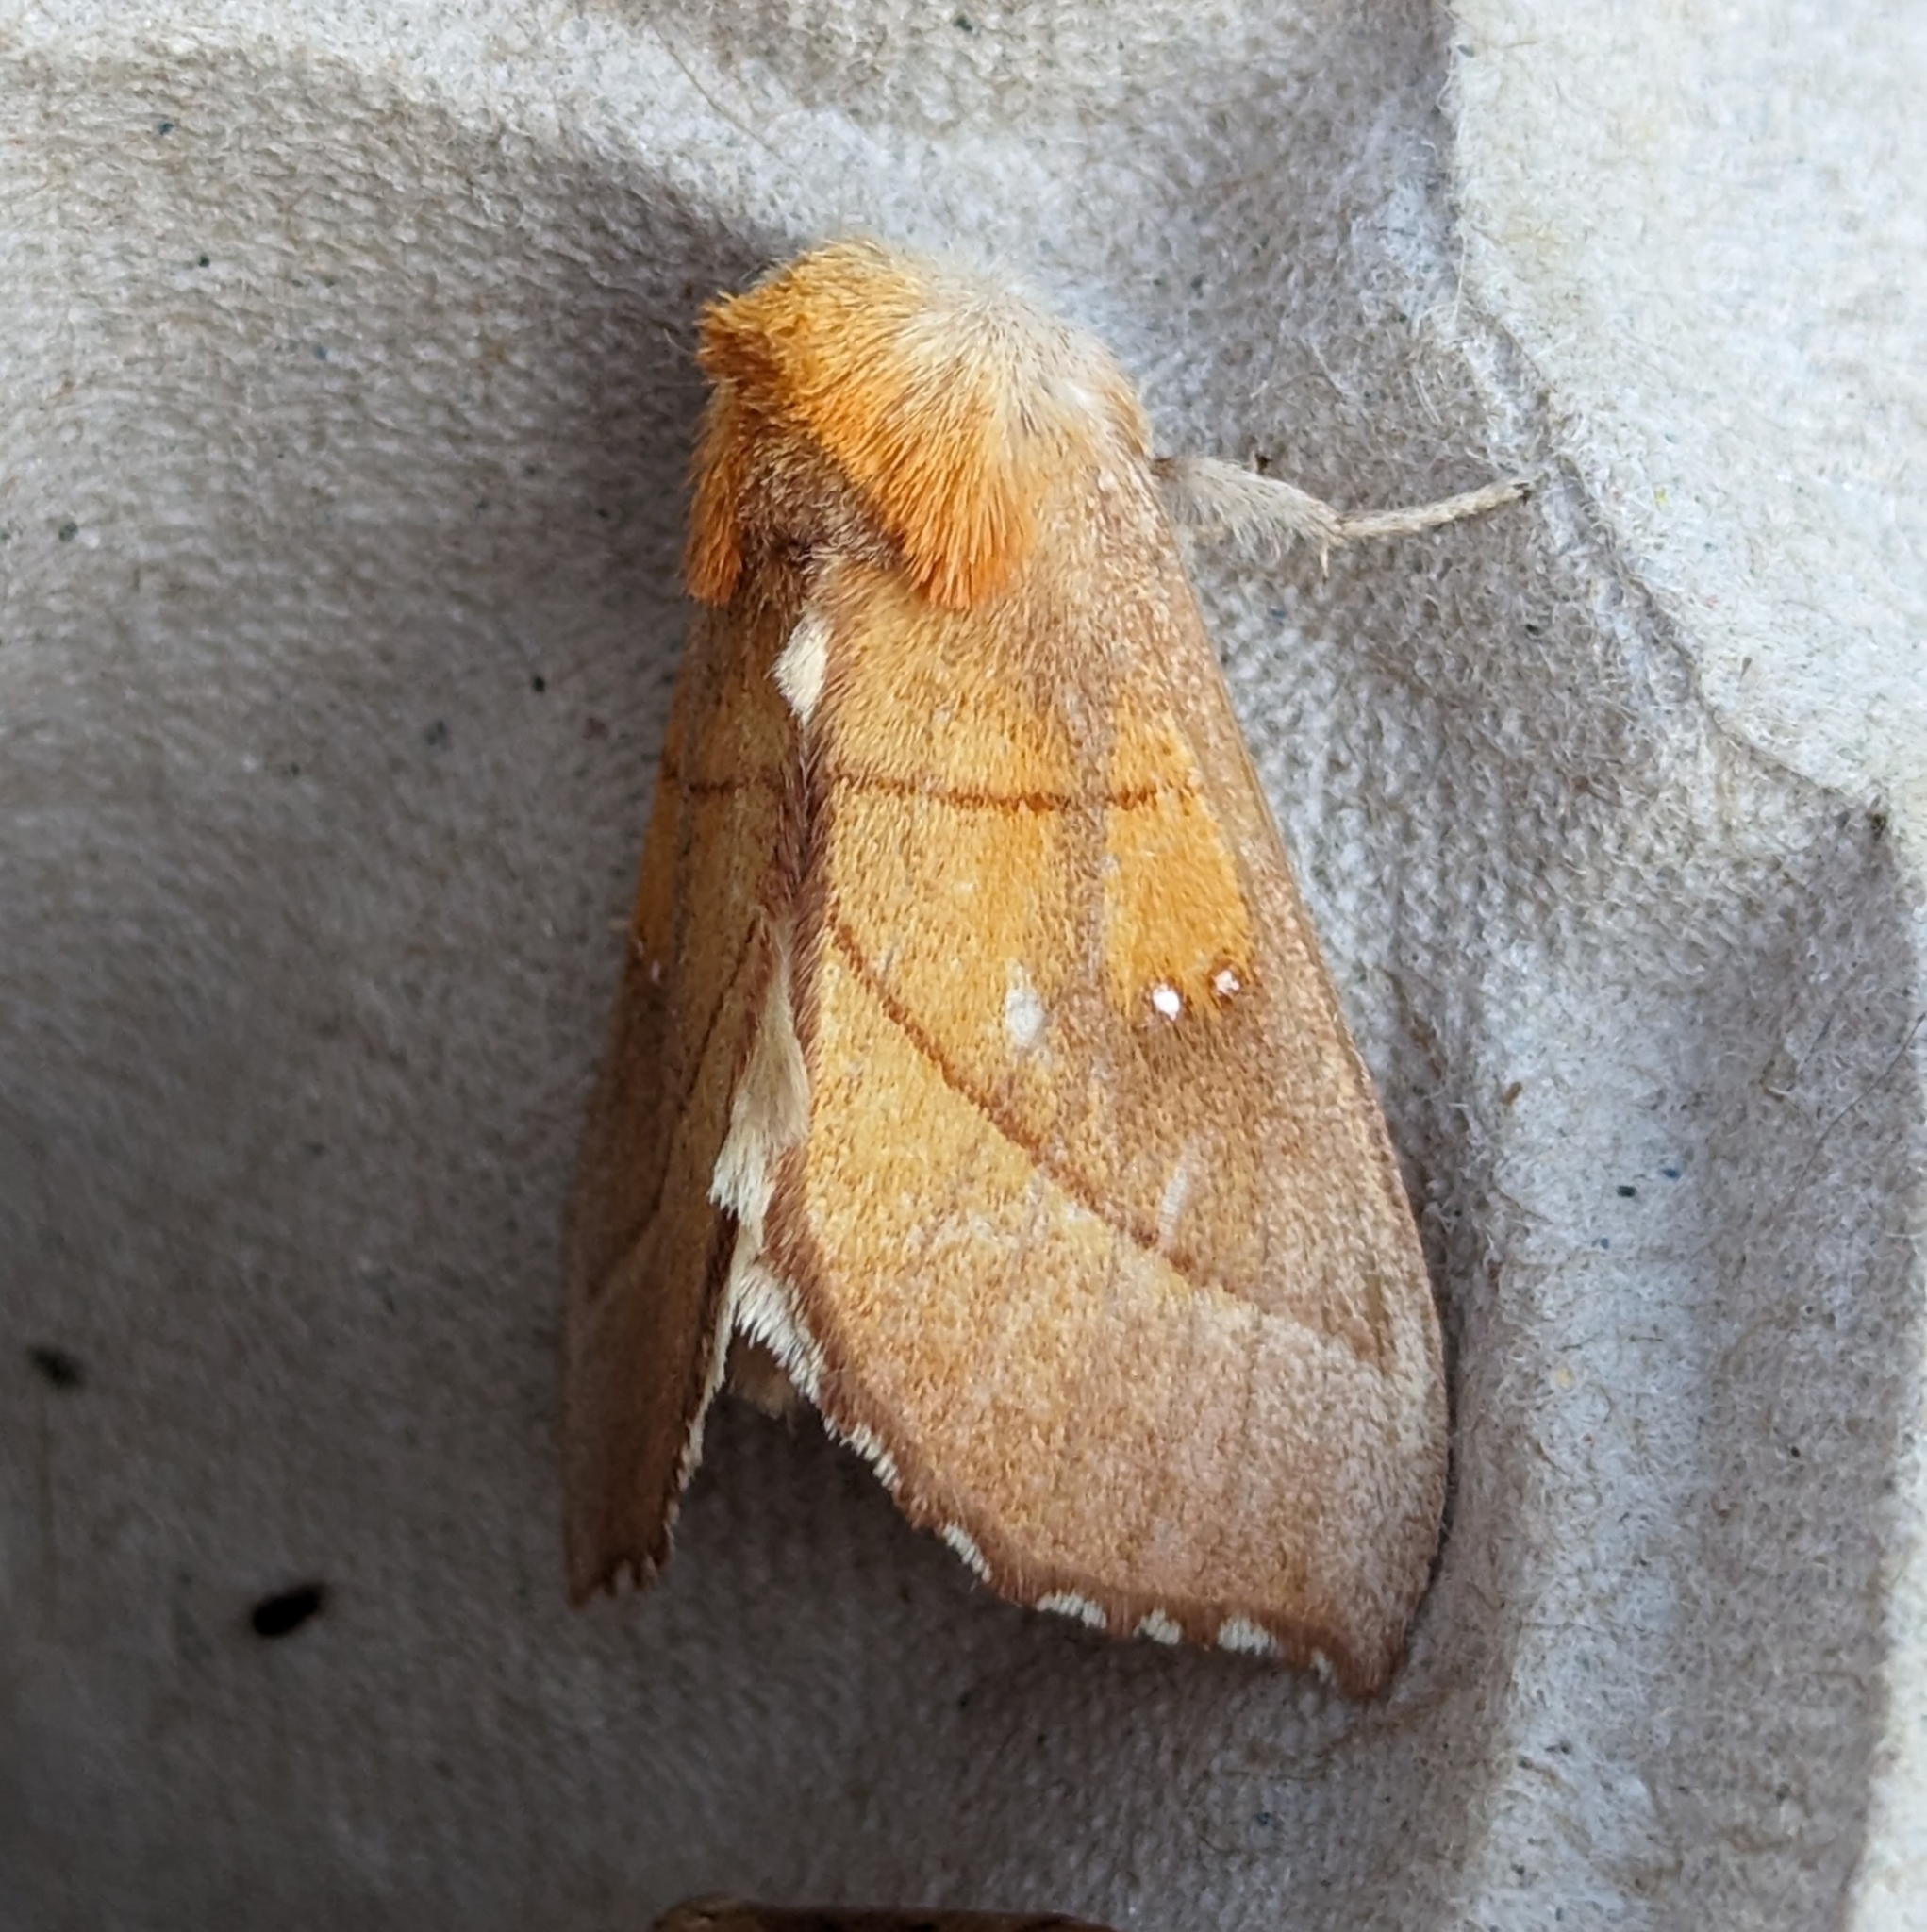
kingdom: Animalia
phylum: Arthropoda
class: Insecta
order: Lepidoptera
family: Notodontidae
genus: Nadata
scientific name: Nadata gibbosa
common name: White-dotted prominent
